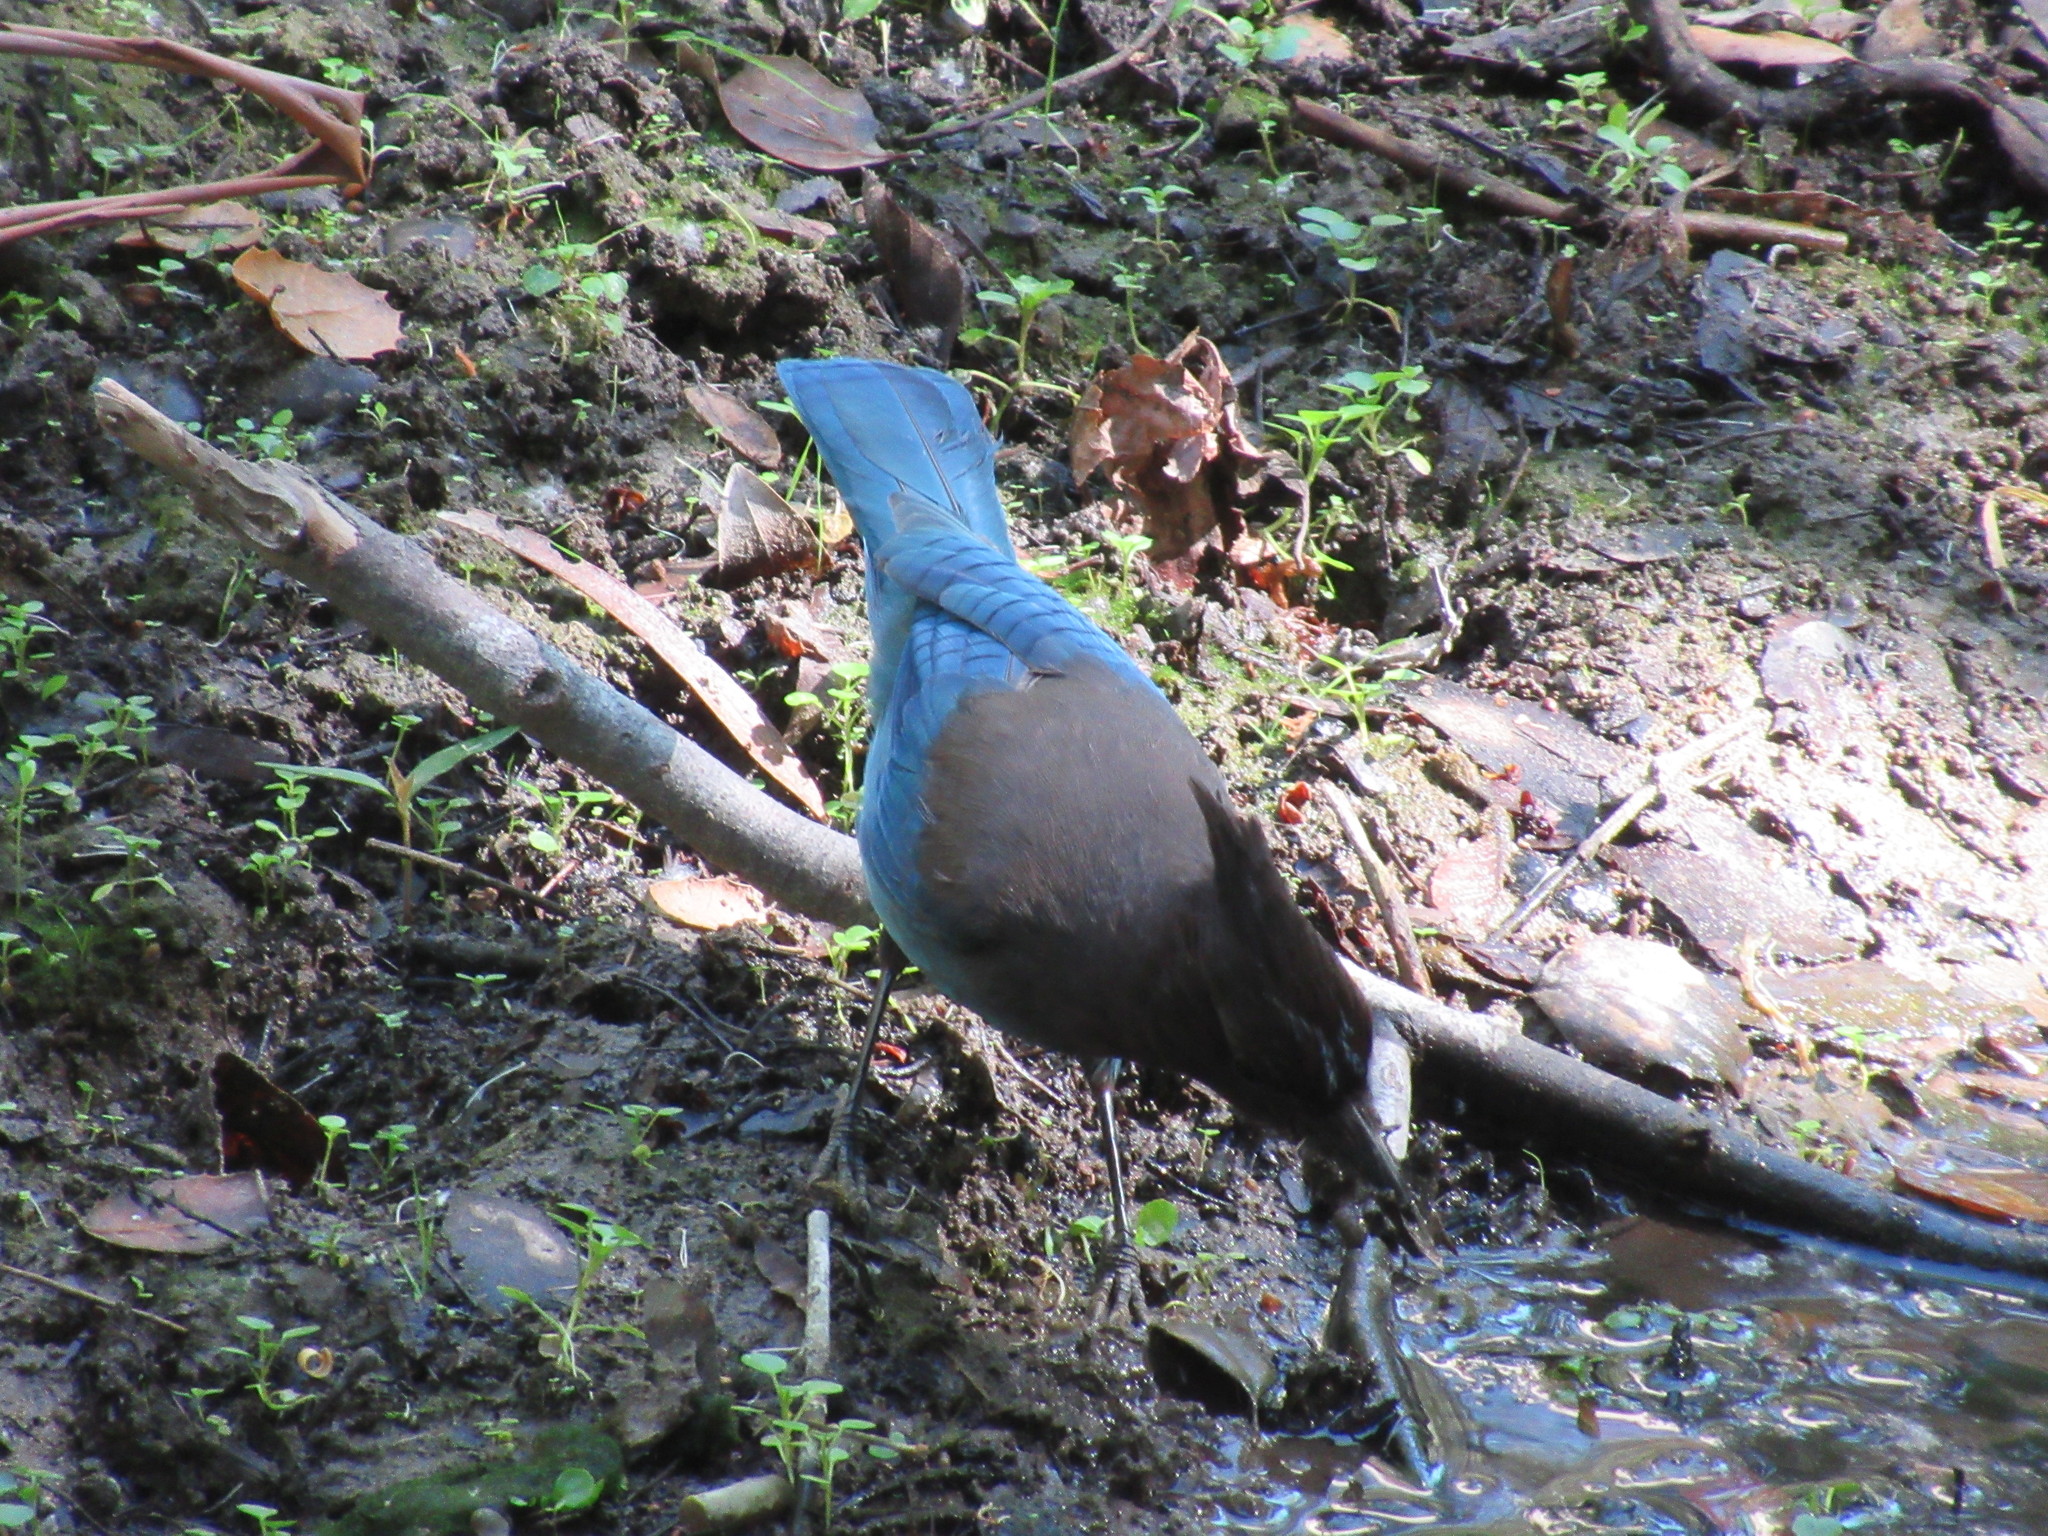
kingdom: Animalia
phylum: Chordata
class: Aves
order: Passeriformes
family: Corvidae
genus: Cyanocitta
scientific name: Cyanocitta stelleri
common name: Steller's jay
